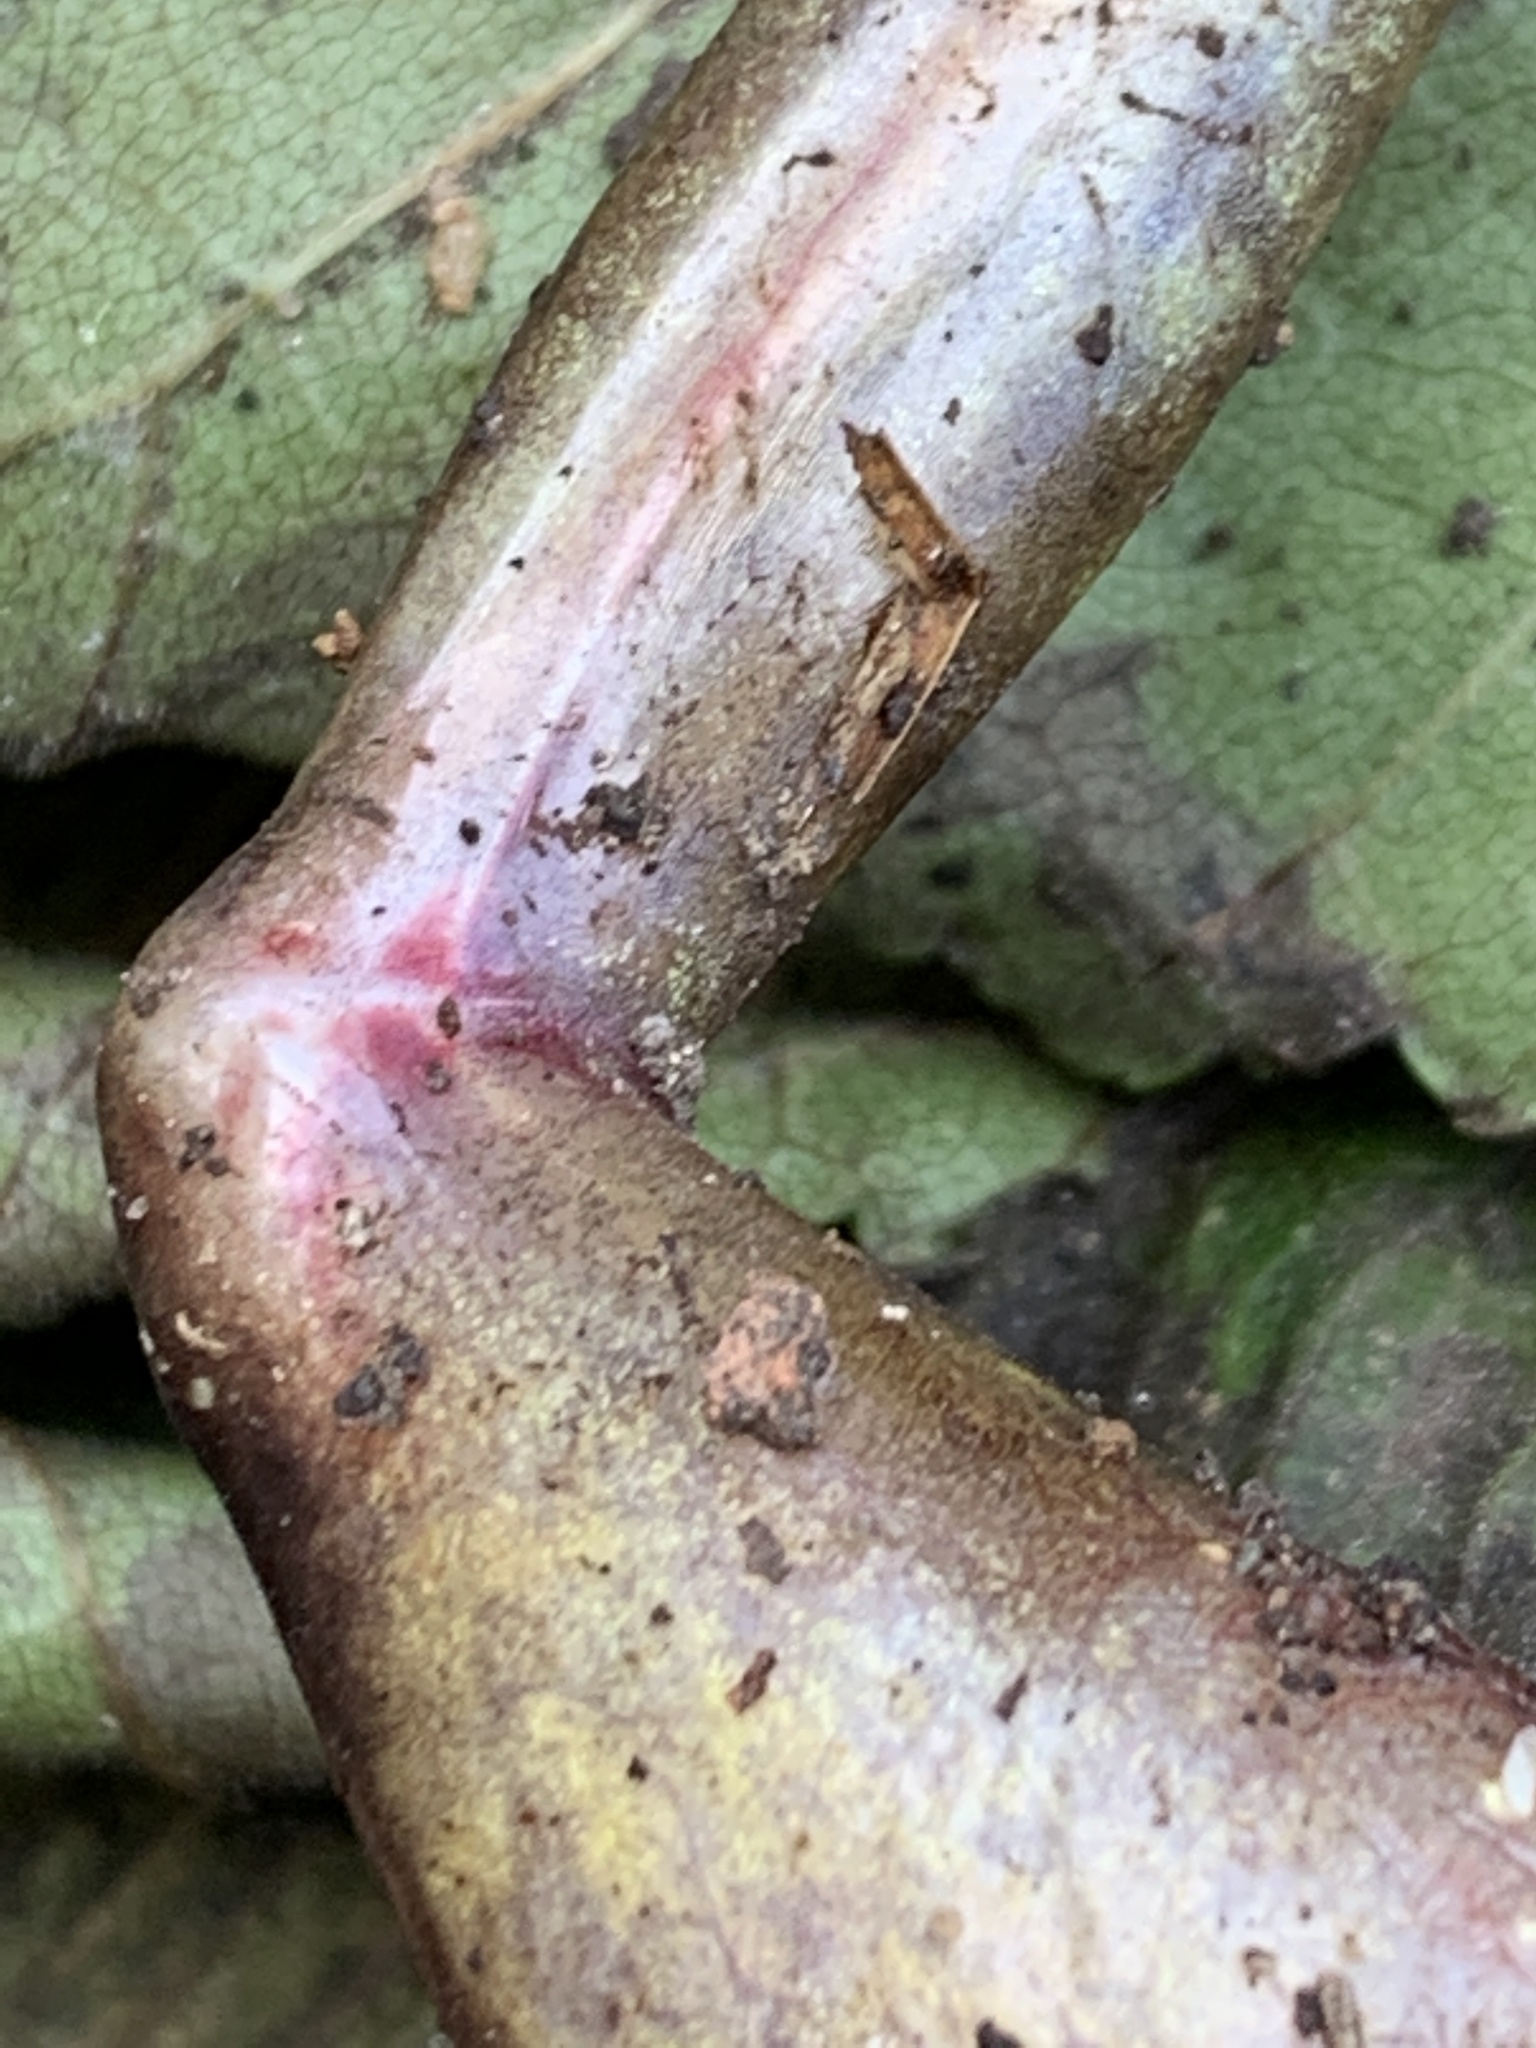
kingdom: Animalia
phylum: Chordata
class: Amphibia
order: Anura
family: Ranidae
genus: Rana
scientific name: Rana temporaria
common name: Common frog
